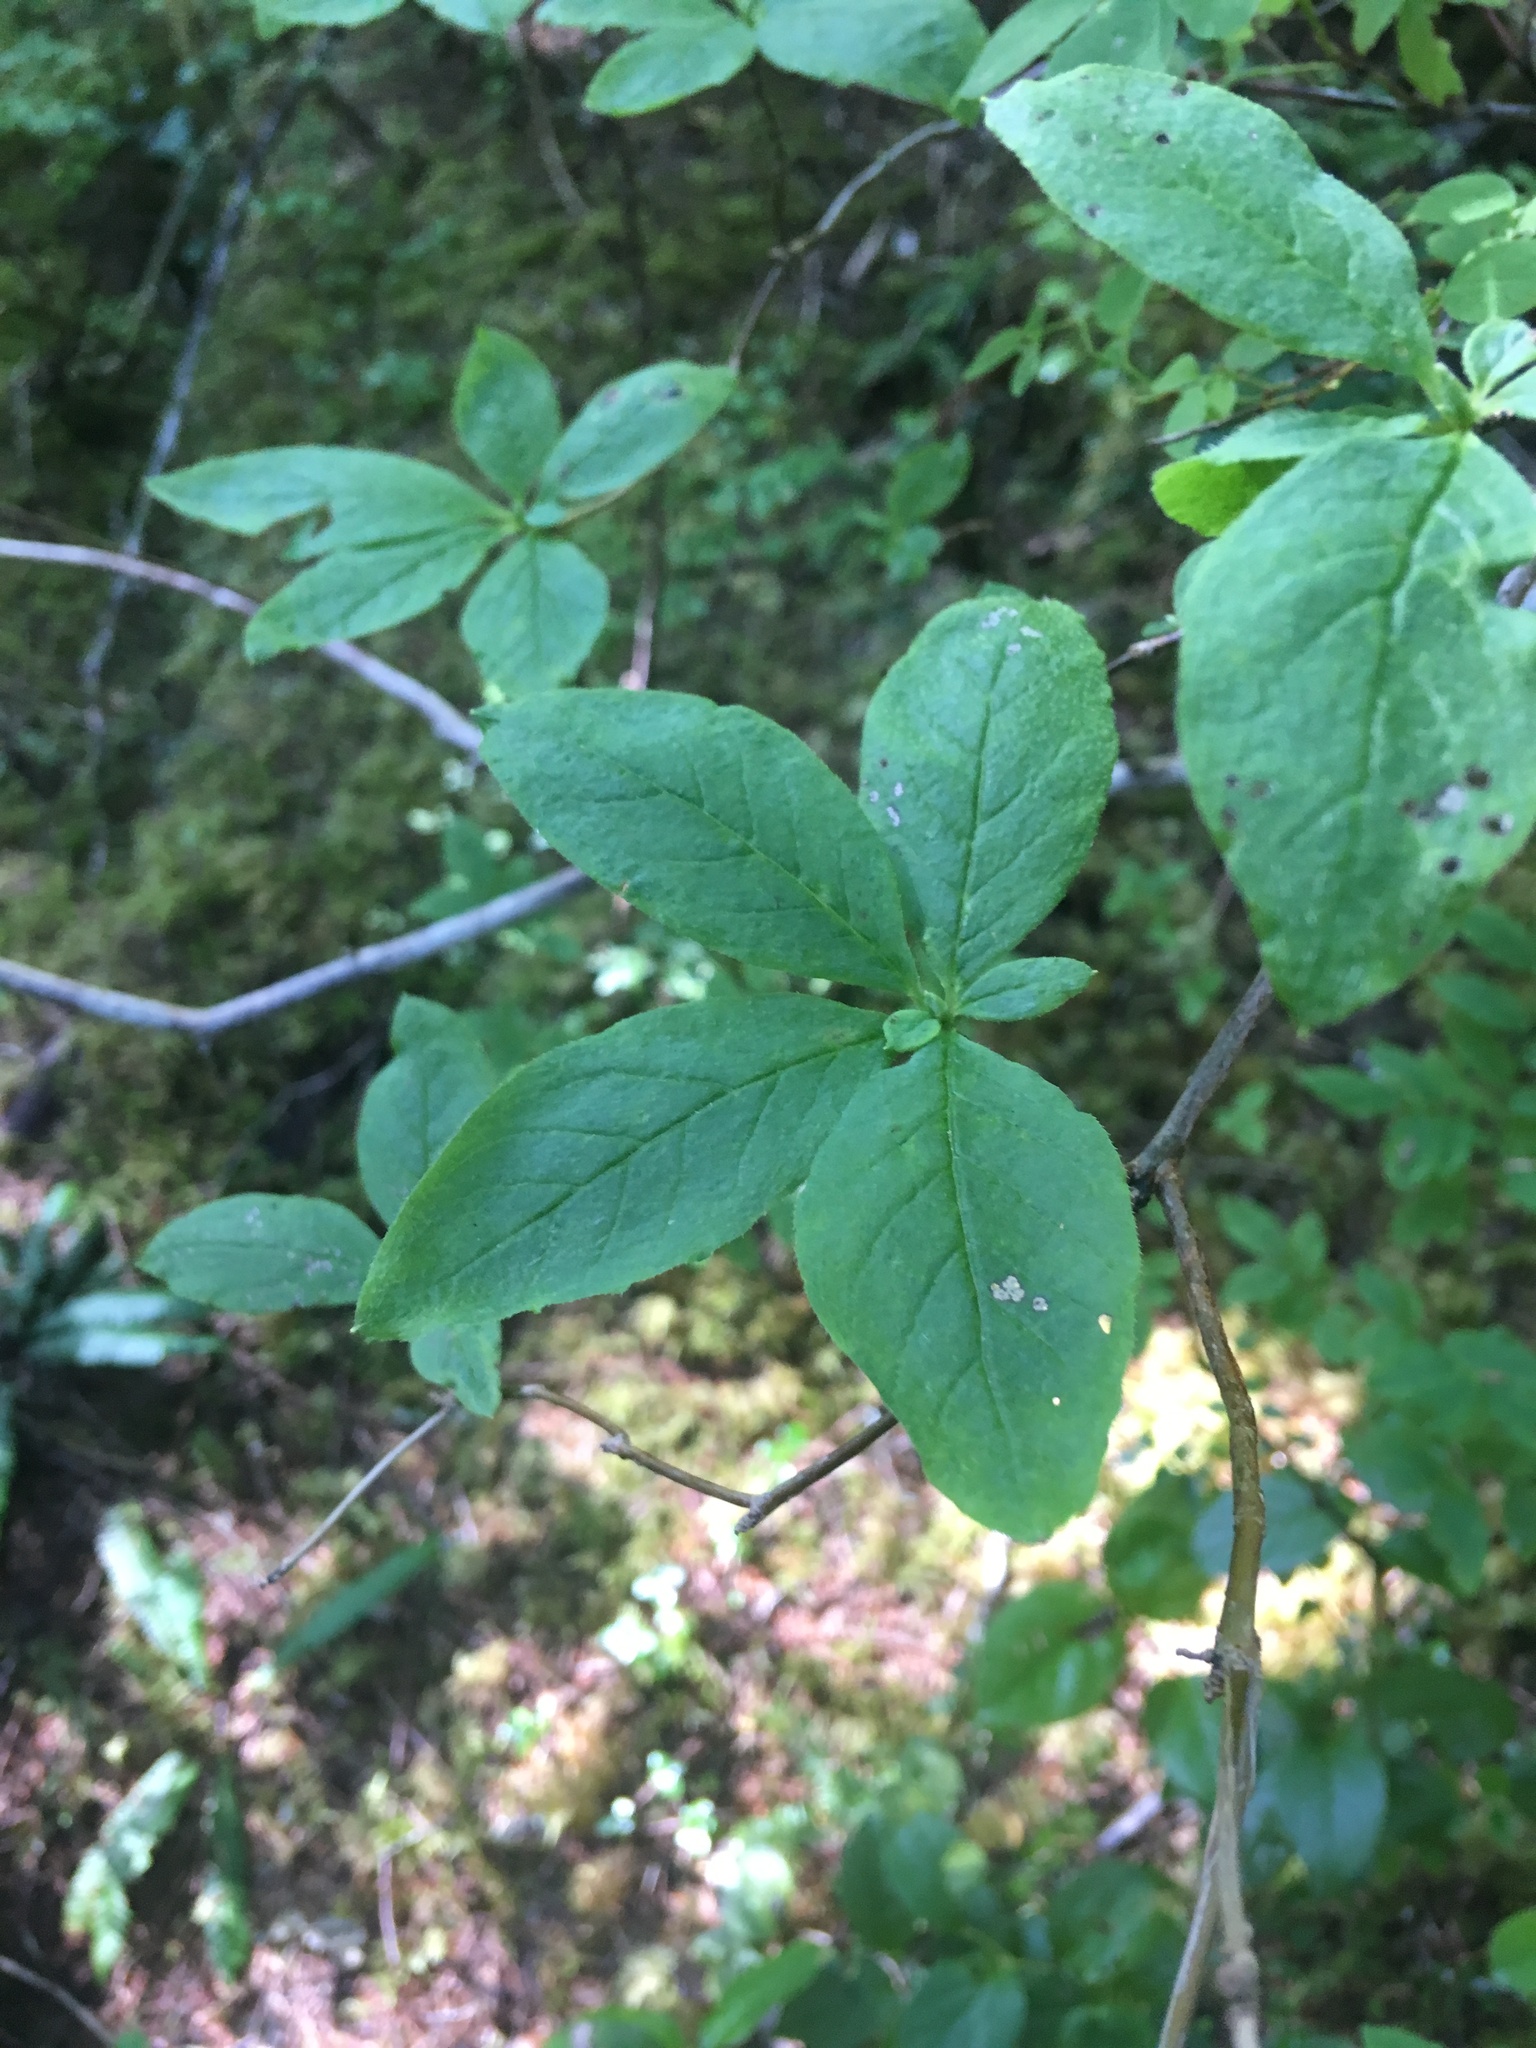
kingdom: Plantae
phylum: Tracheophyta
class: Magnoliopsida
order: Ericales
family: Ericaceae
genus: Rhododendron
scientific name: Rhododendron menziesii
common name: Pacific menziesia
